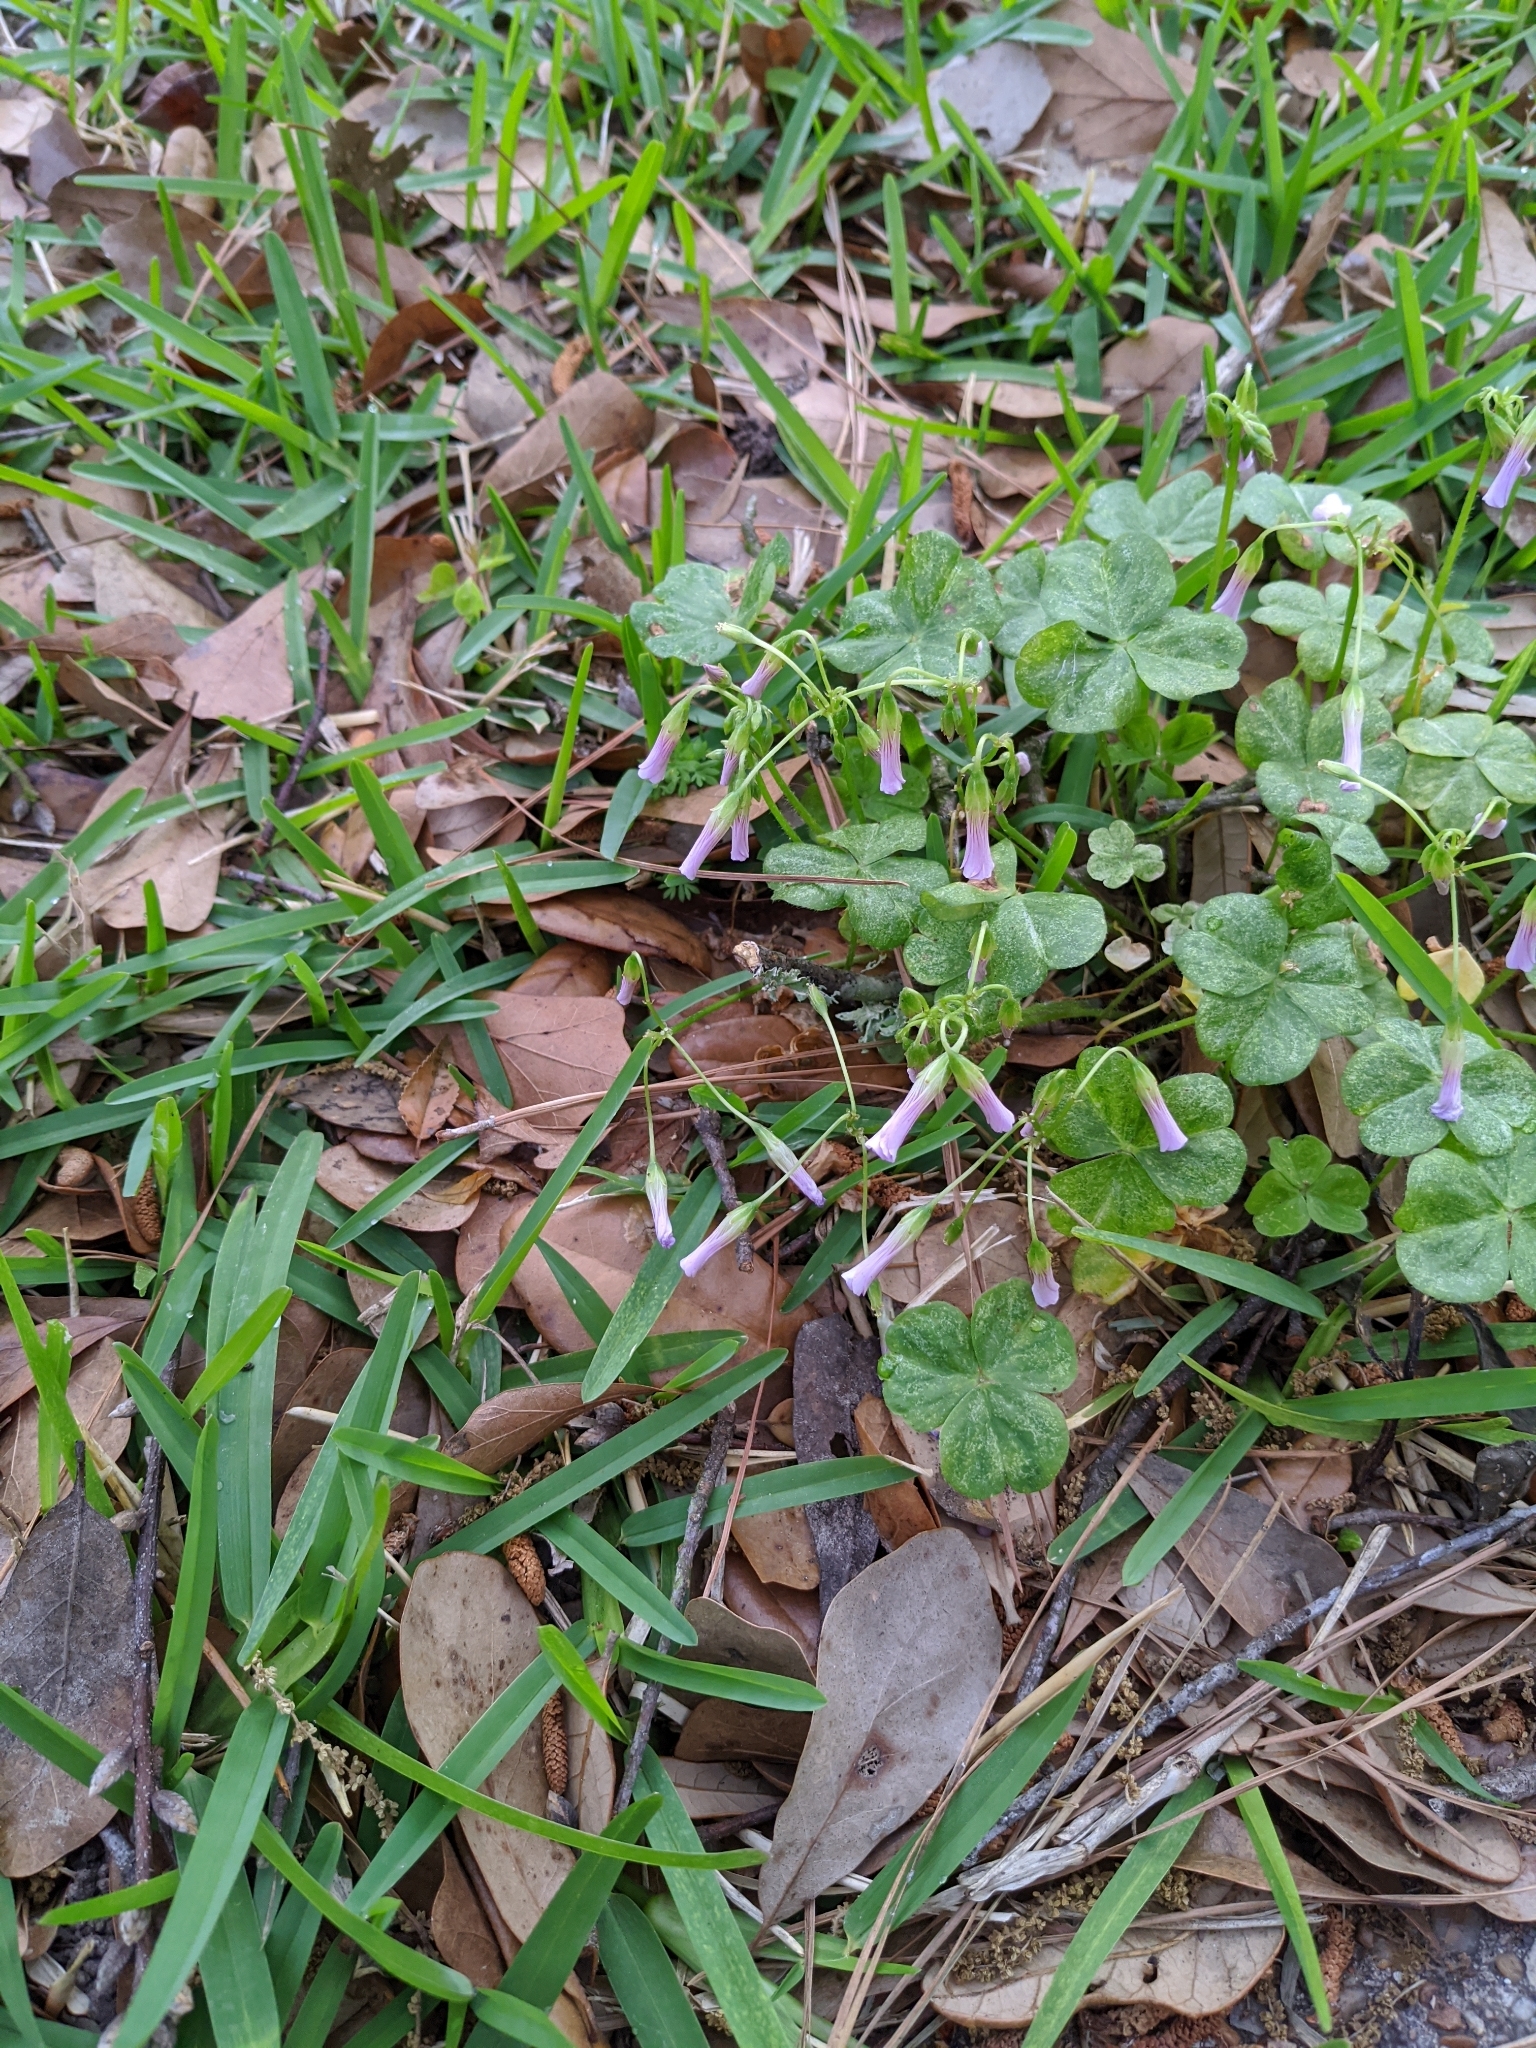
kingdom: Plantae
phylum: Tracheophyta
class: Magnoliopsida
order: Oxalidales
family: Oxalidaceae
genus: Oxalis
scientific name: Oxalis debilis
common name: Large-flowered pink-sorrel
